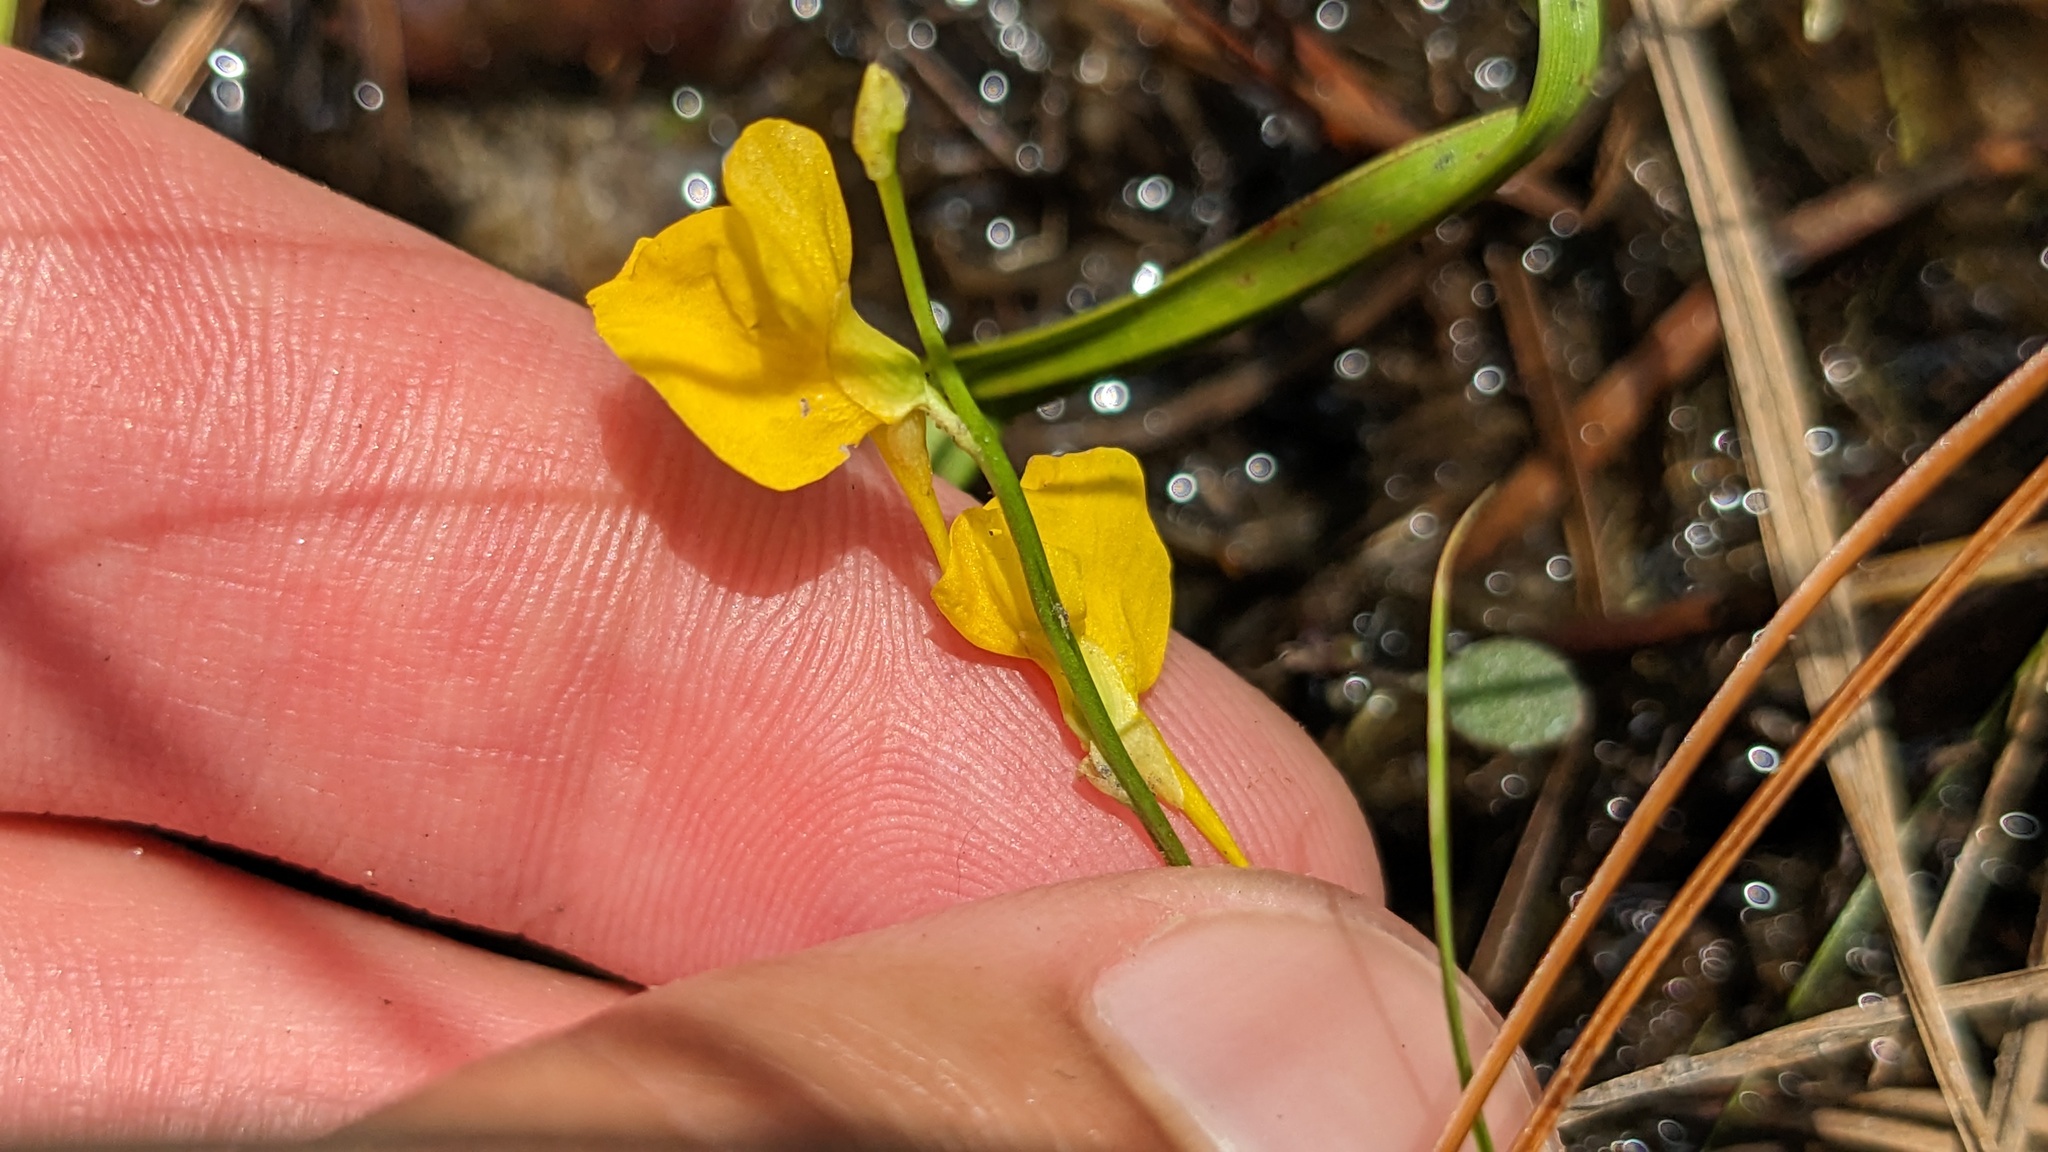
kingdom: Plantae
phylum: Tracheophyta
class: Magnoliopsida
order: Lamiales
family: Lentibulariaceae
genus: Utricularia
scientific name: Utricularia juncea
